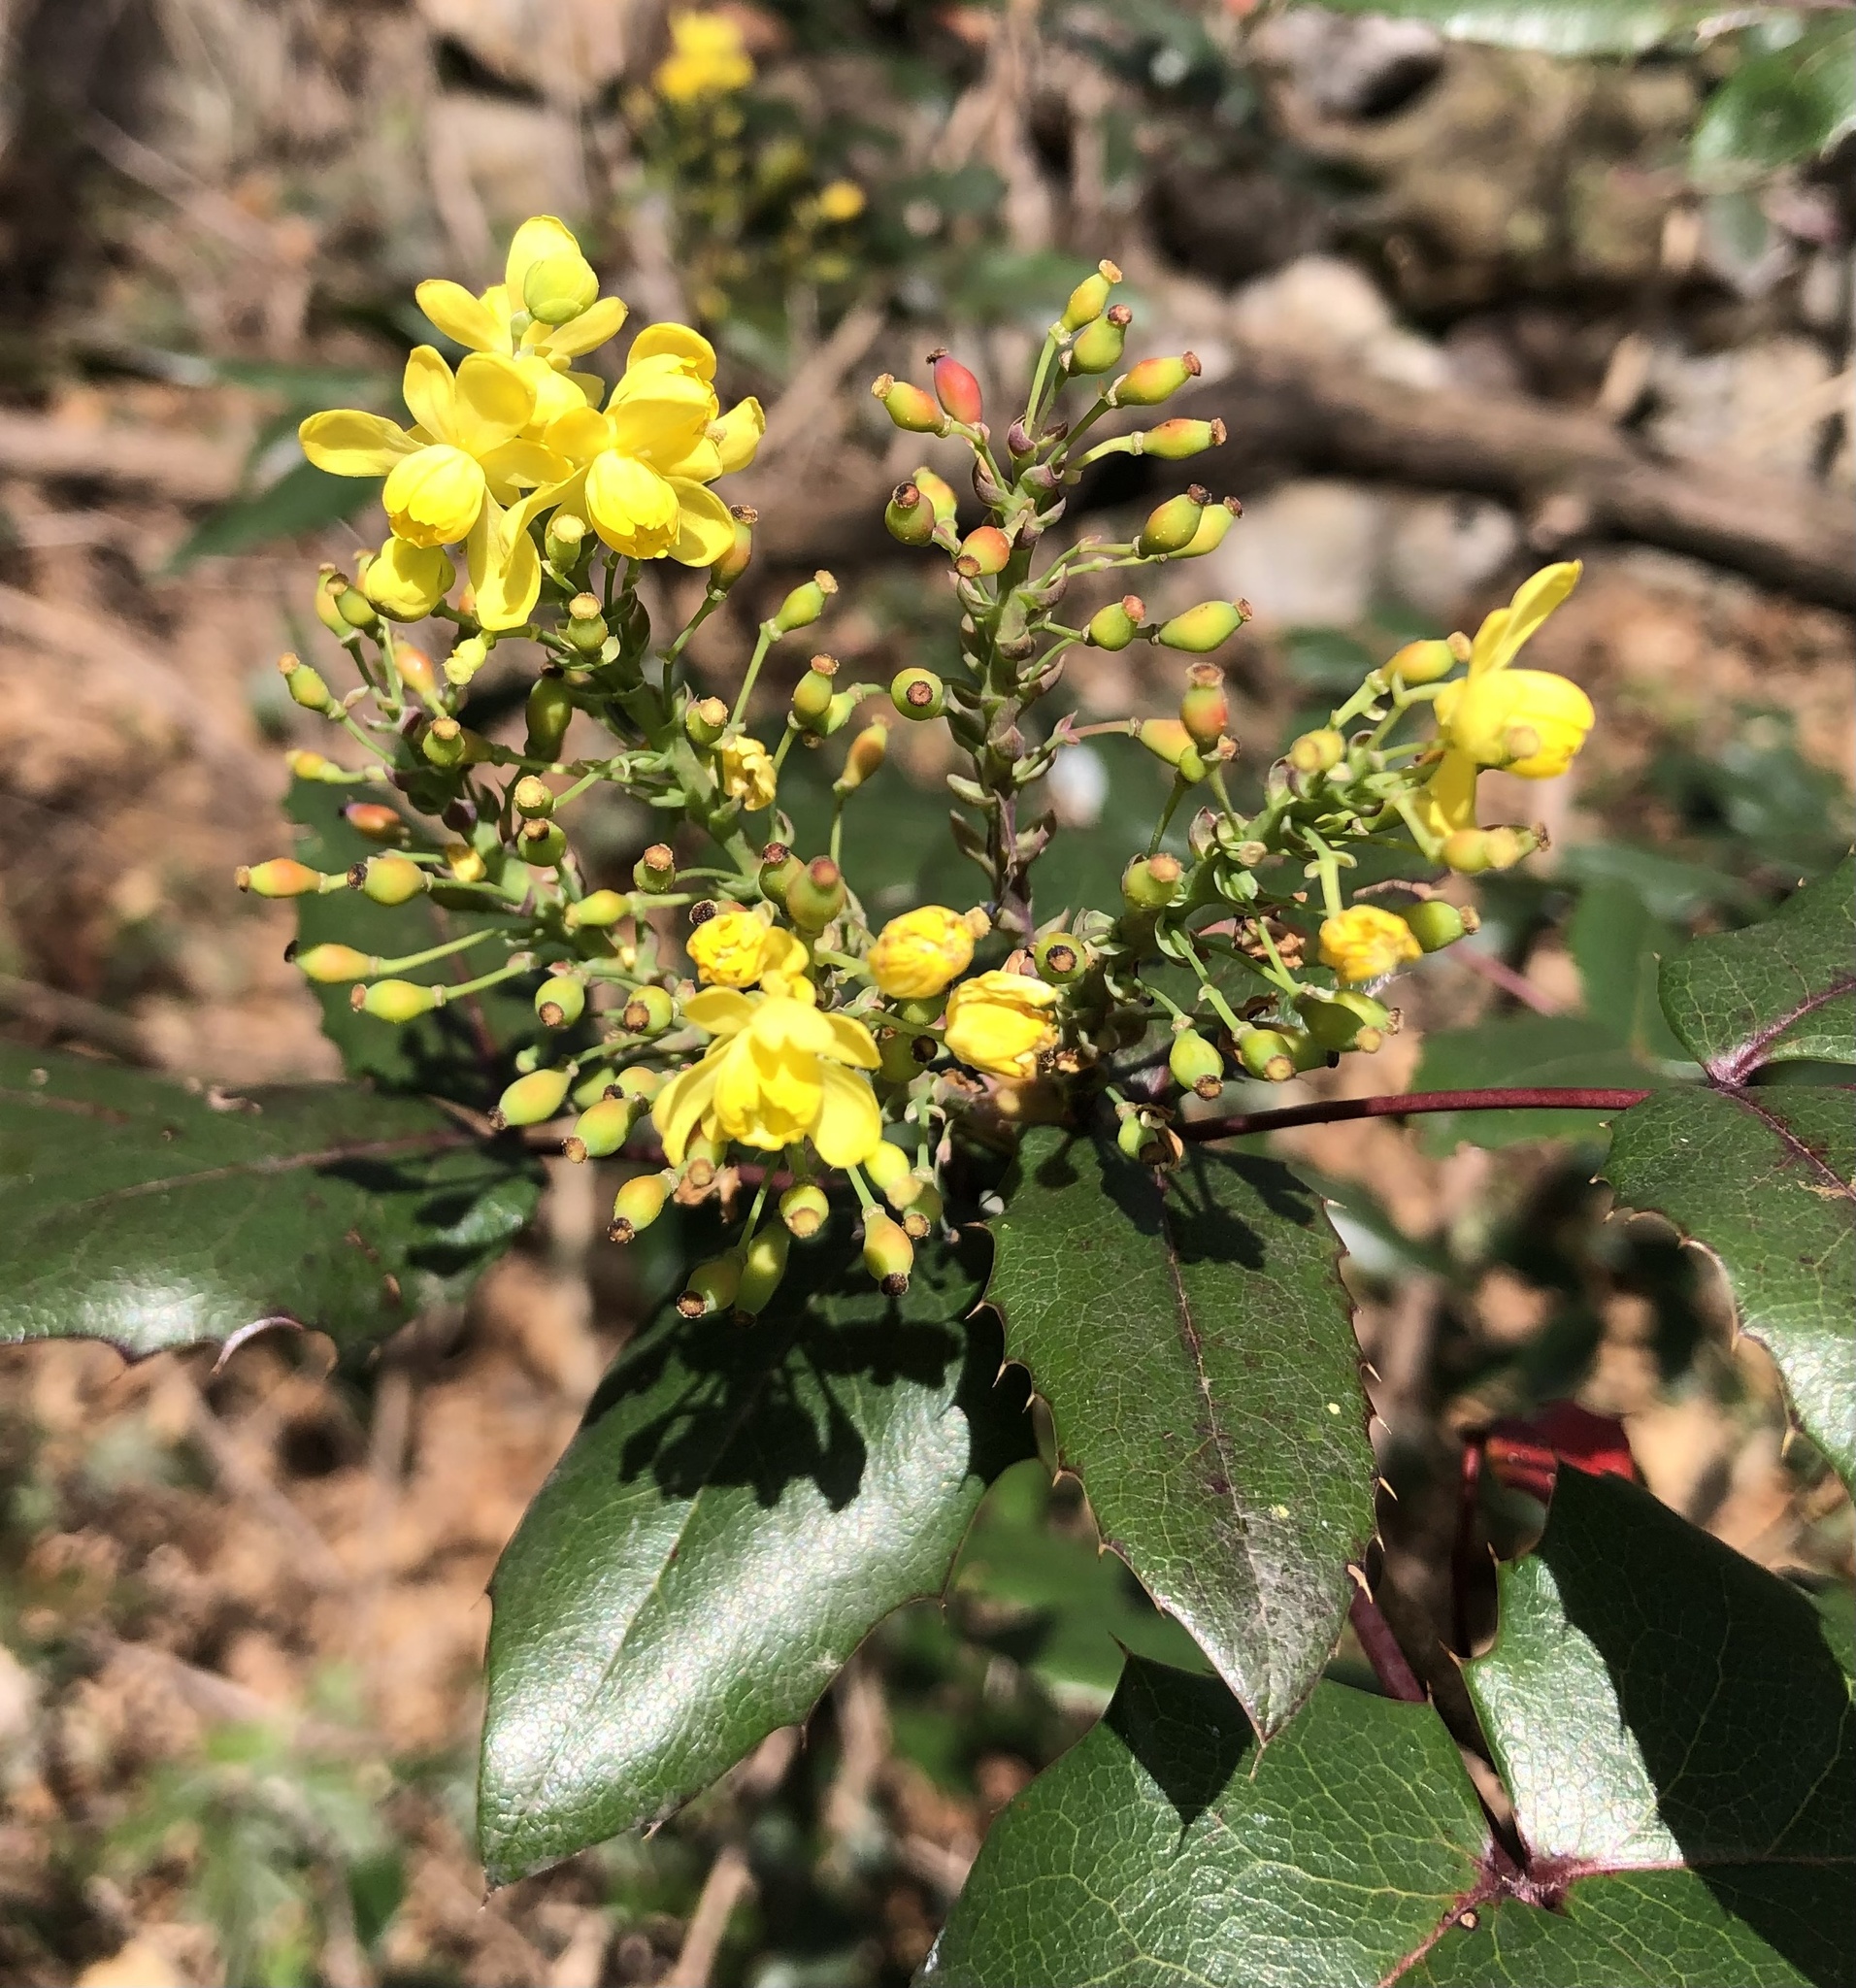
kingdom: Plantae
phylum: Tracheophyta
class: Magnoliopsida
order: Ranunculales
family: Berberidaceae
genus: Mahonia
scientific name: Mahonia aquifolium
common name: Oregon-grape
